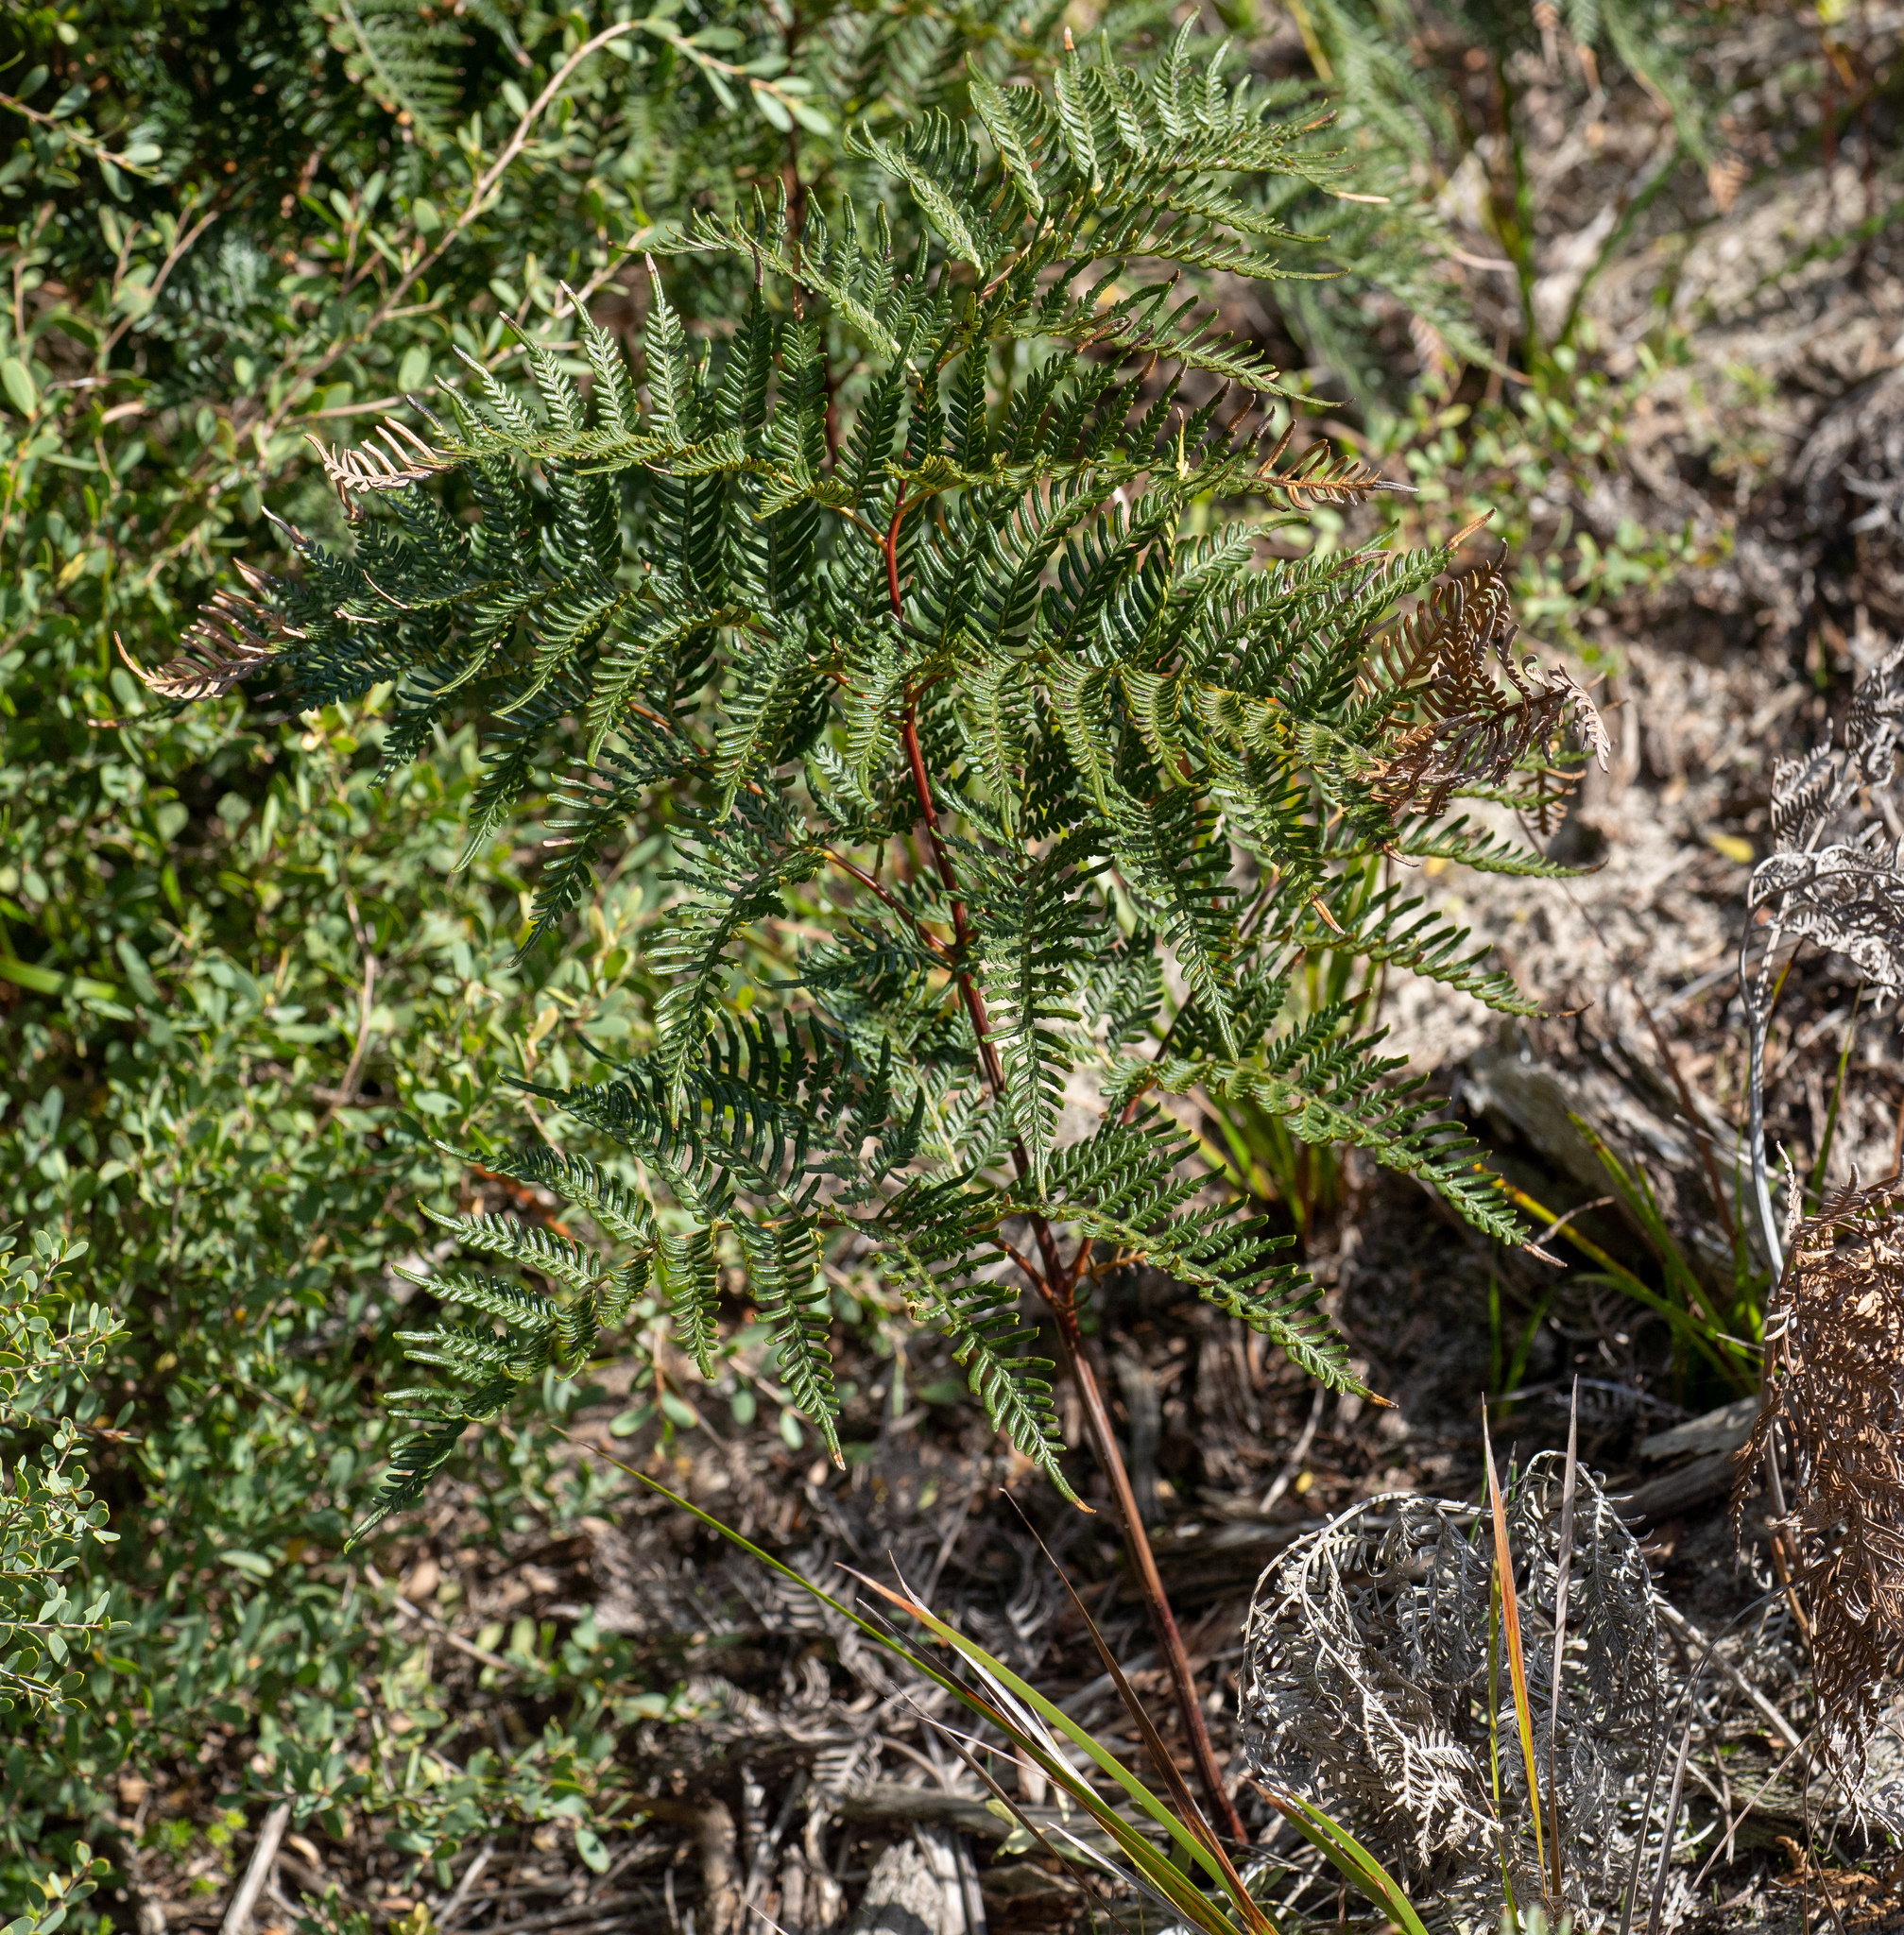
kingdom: Plantae
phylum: Tracheophyta
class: Polypodiopsida
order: Polypodiales
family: Dennstaedtiaceae
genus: Pteridium
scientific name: Pteridium esculentum
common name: Bracken fern
